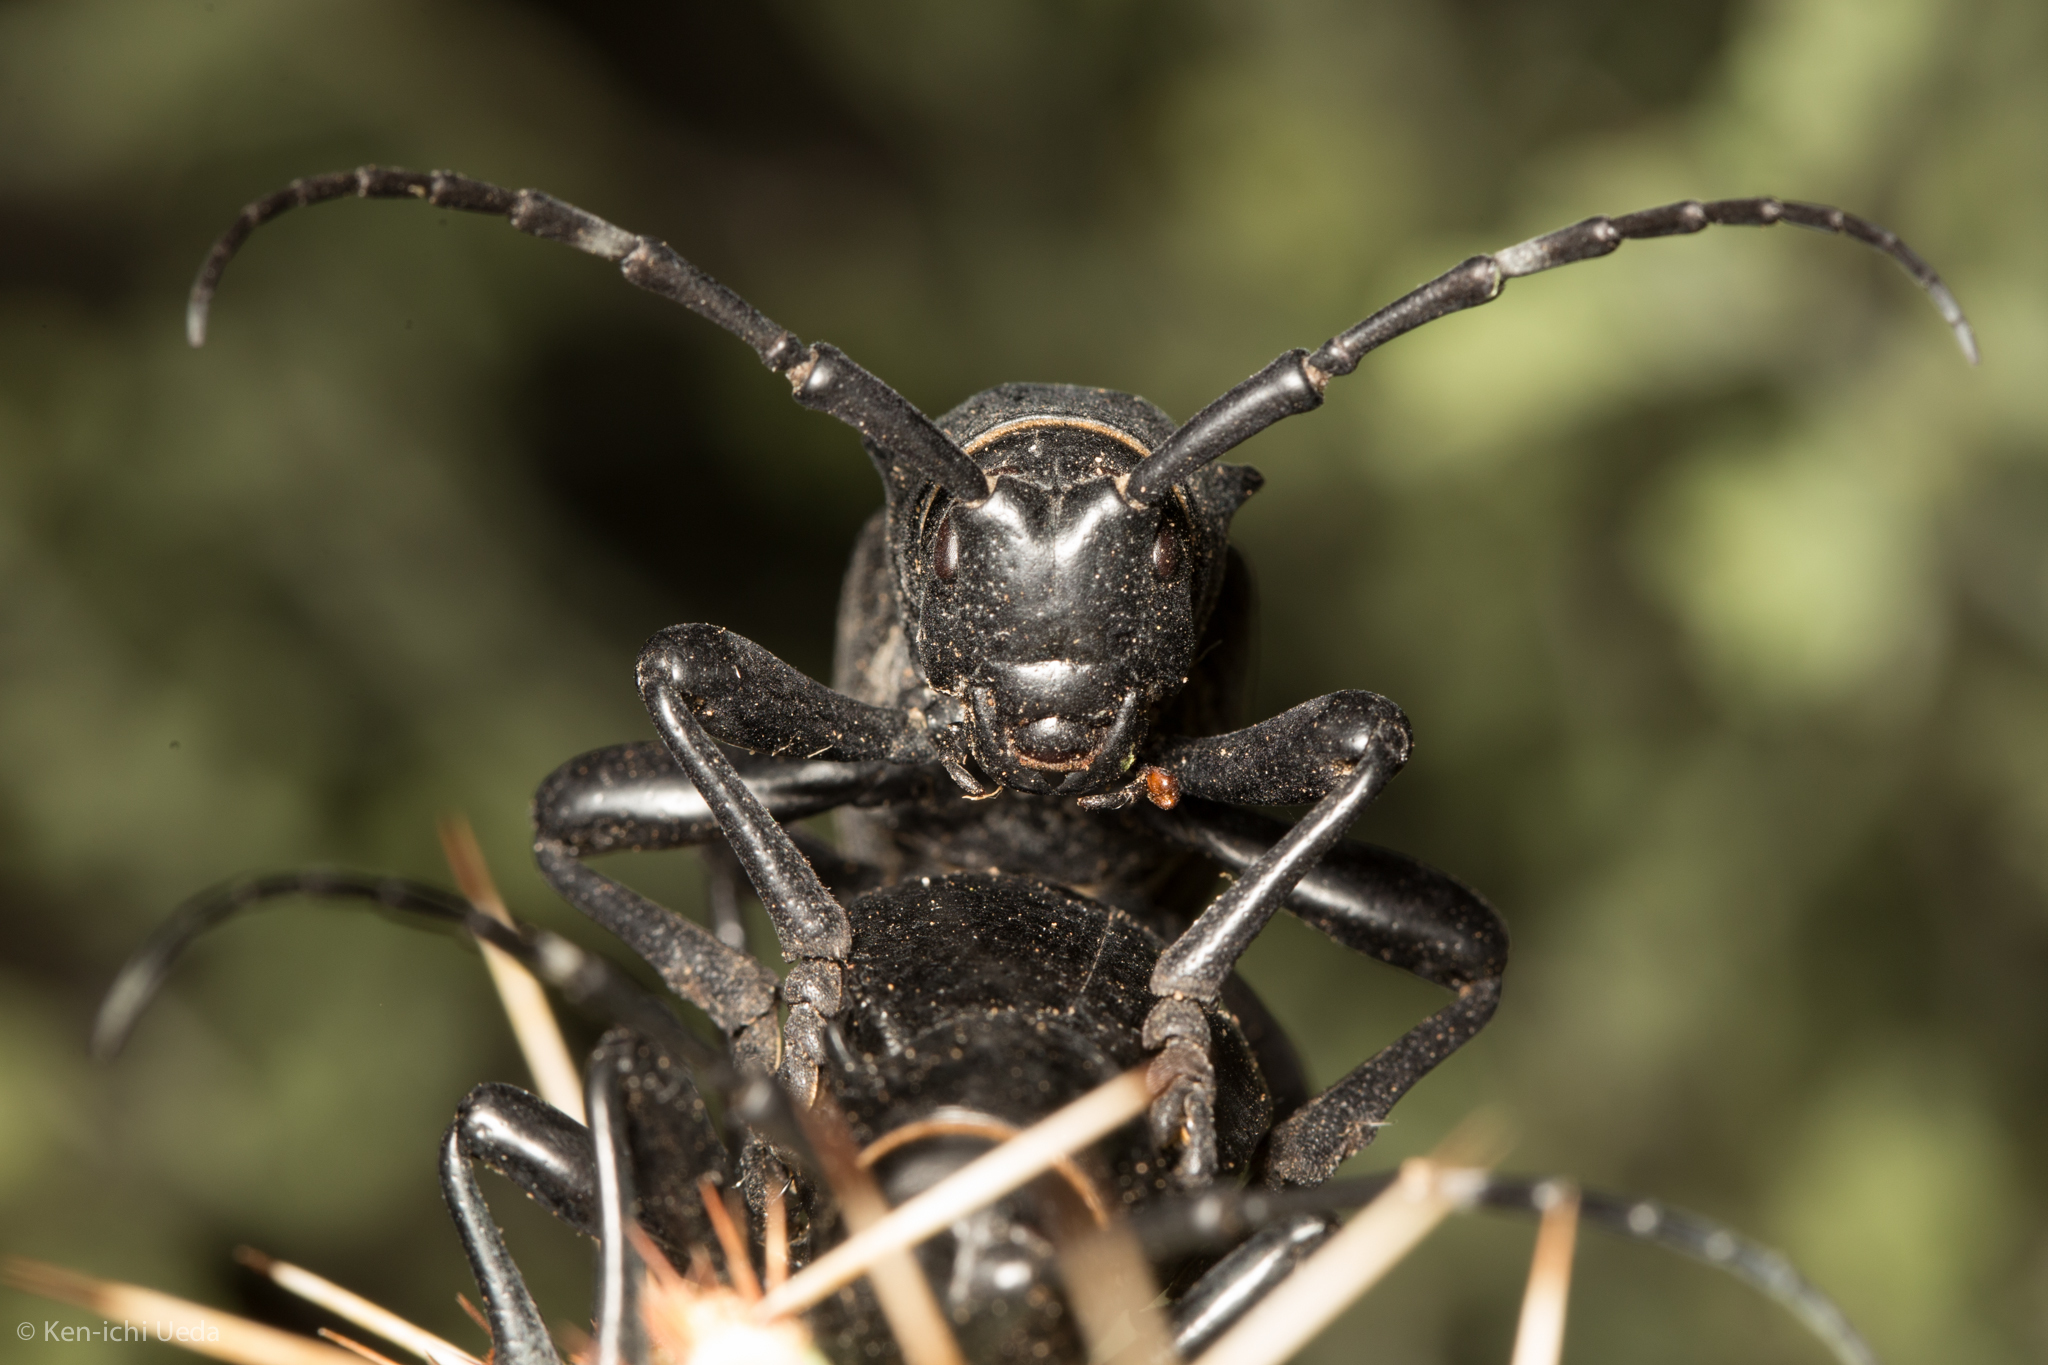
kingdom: Animalia
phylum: Arthropoda
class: Insecta
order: Coleoptera
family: Cerambycidae
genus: Moneilema
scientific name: Moneilema gigas
